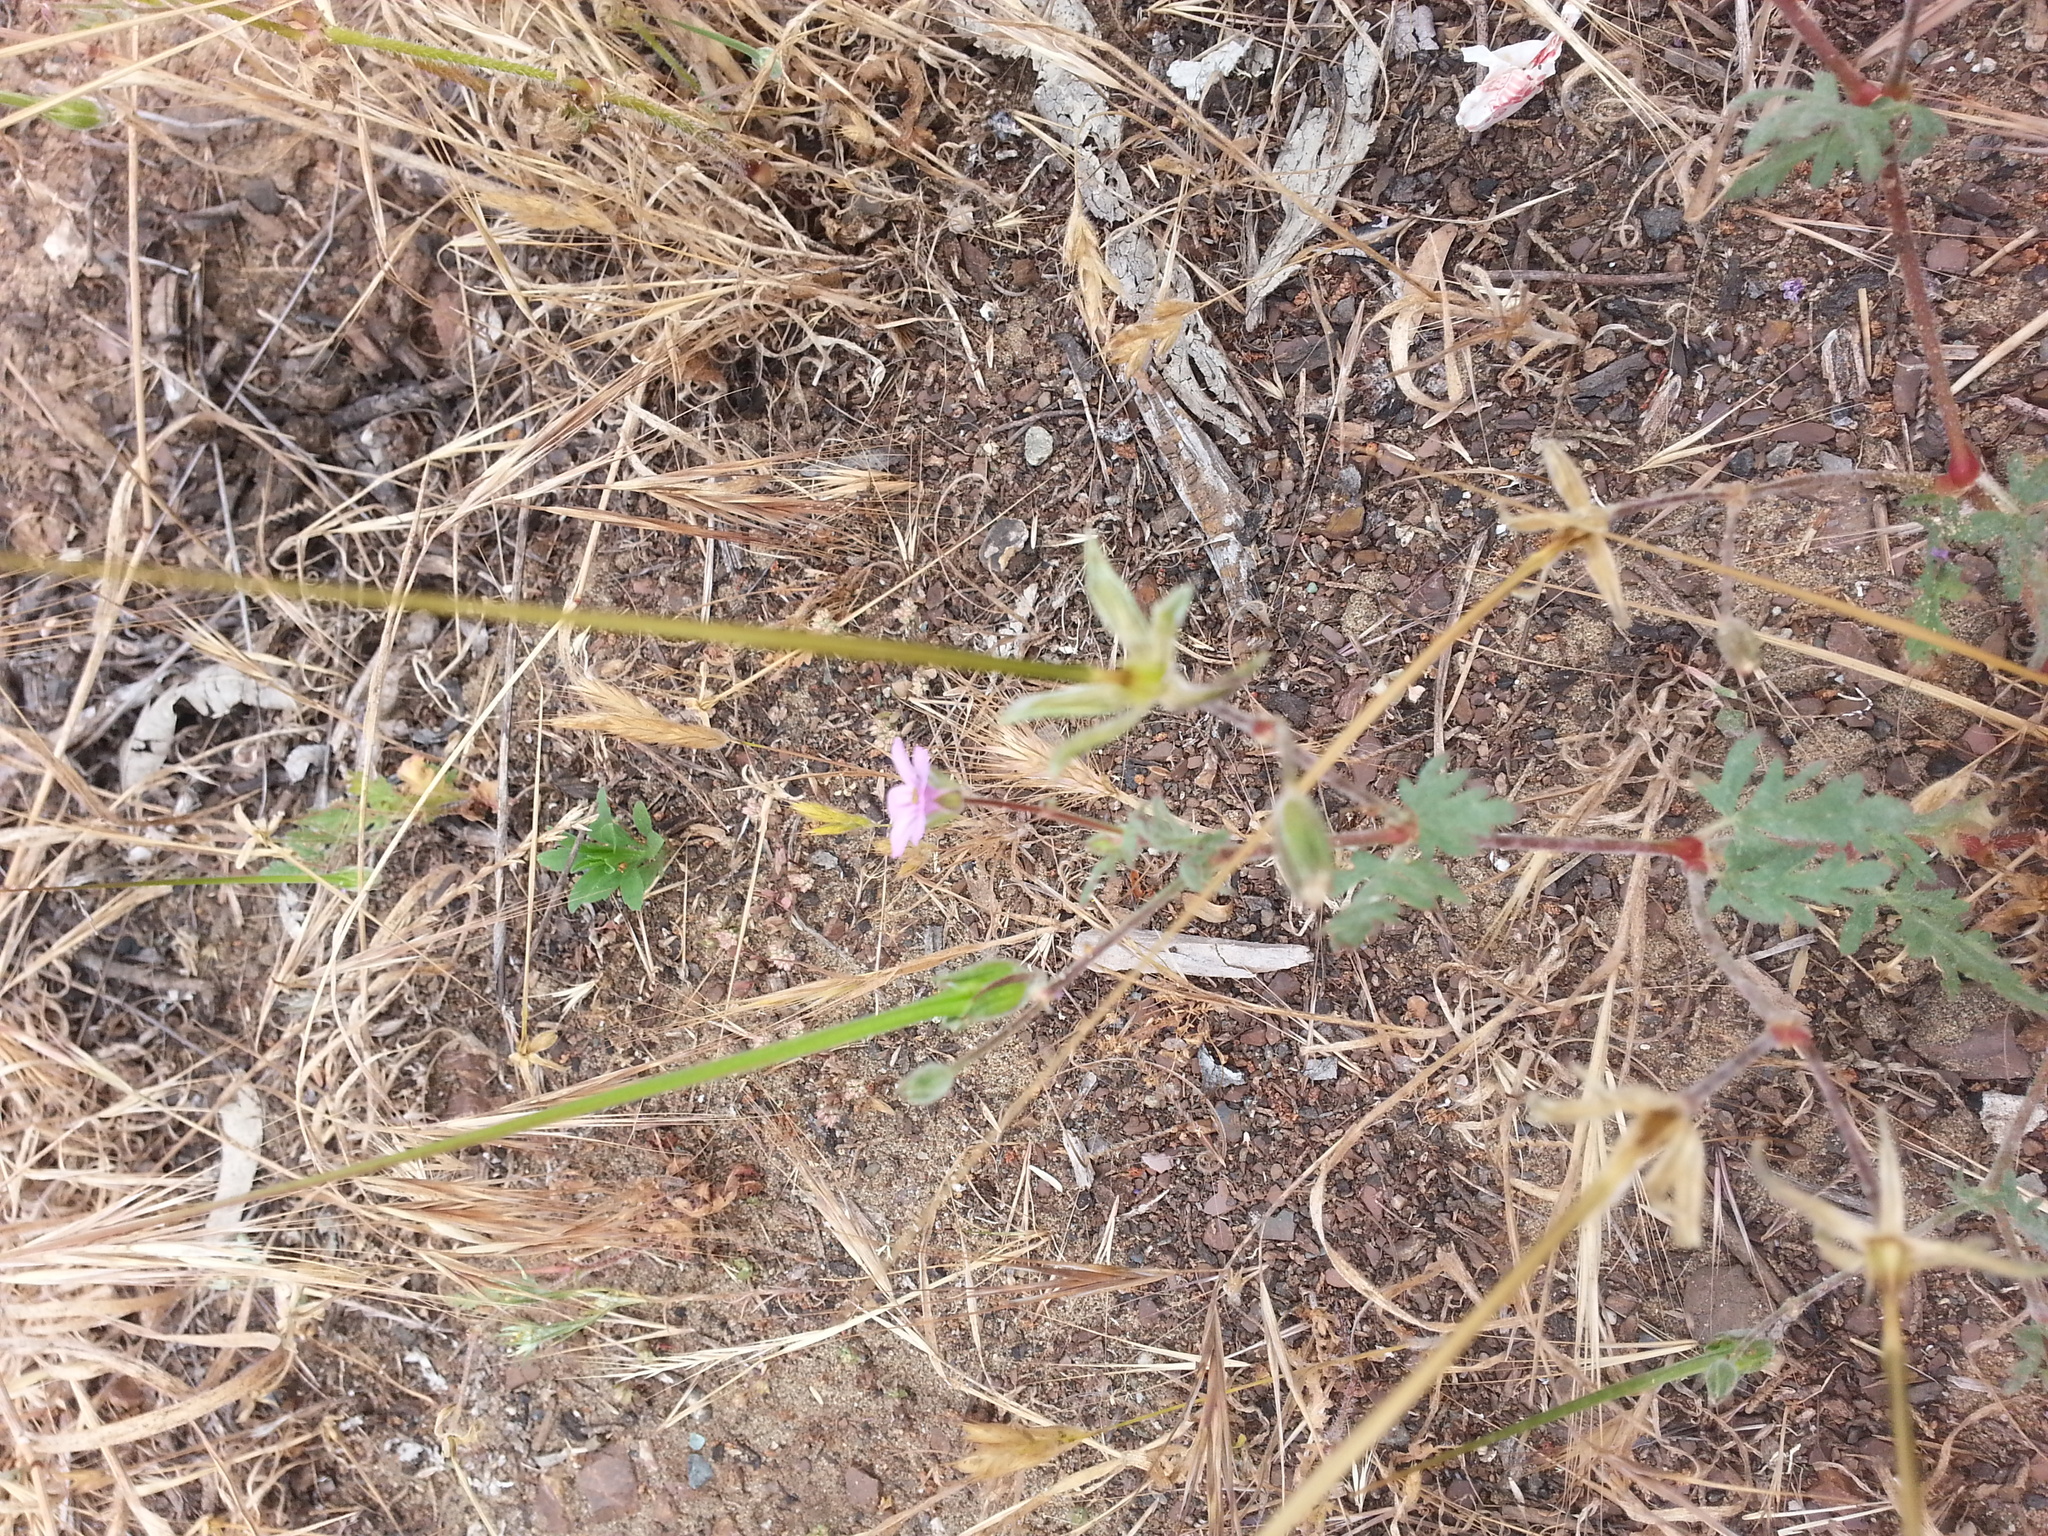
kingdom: Plantae
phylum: Tracheophyta
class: Magnoliopsida
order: Geraniales
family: Geraniaceae
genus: Erodium
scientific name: Erodium botrys
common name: Mediterranean stork's-bill
